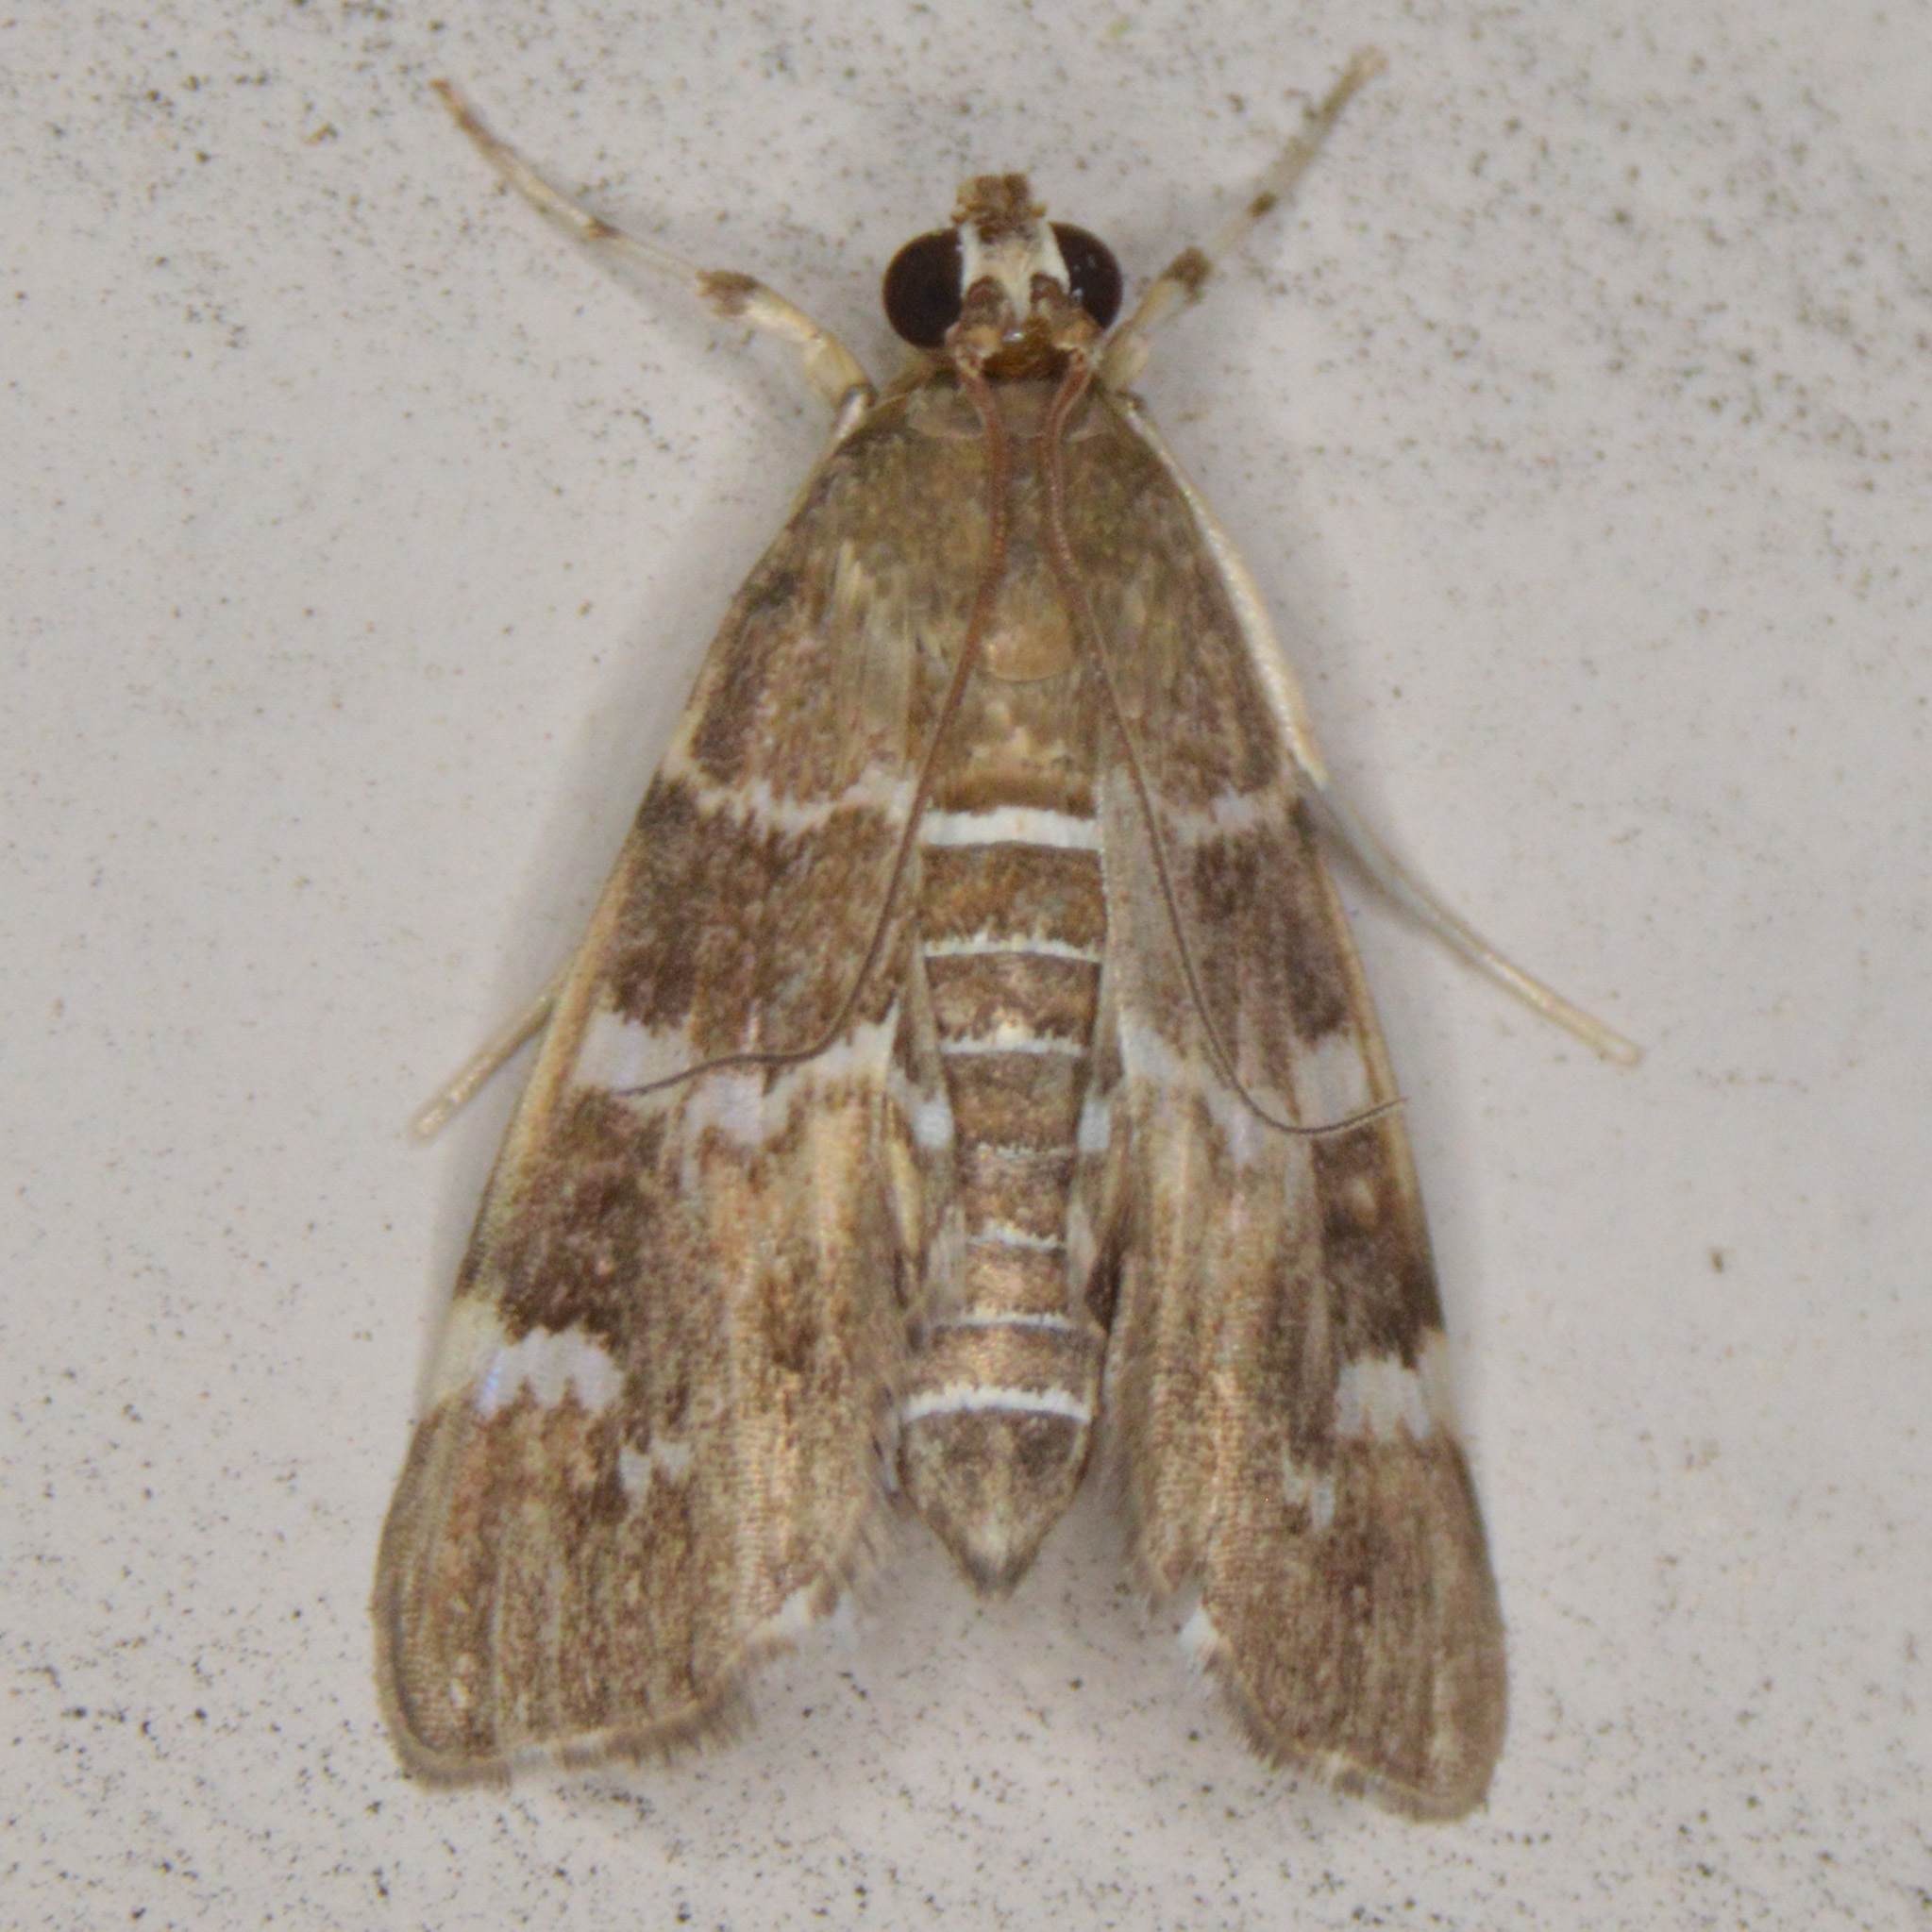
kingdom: Animalia
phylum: Arthropoda
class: Insecta
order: Lepidoptera
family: Crambidae
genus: Hymenia
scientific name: Hymenia perspectalis
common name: Spotted beet webworm
